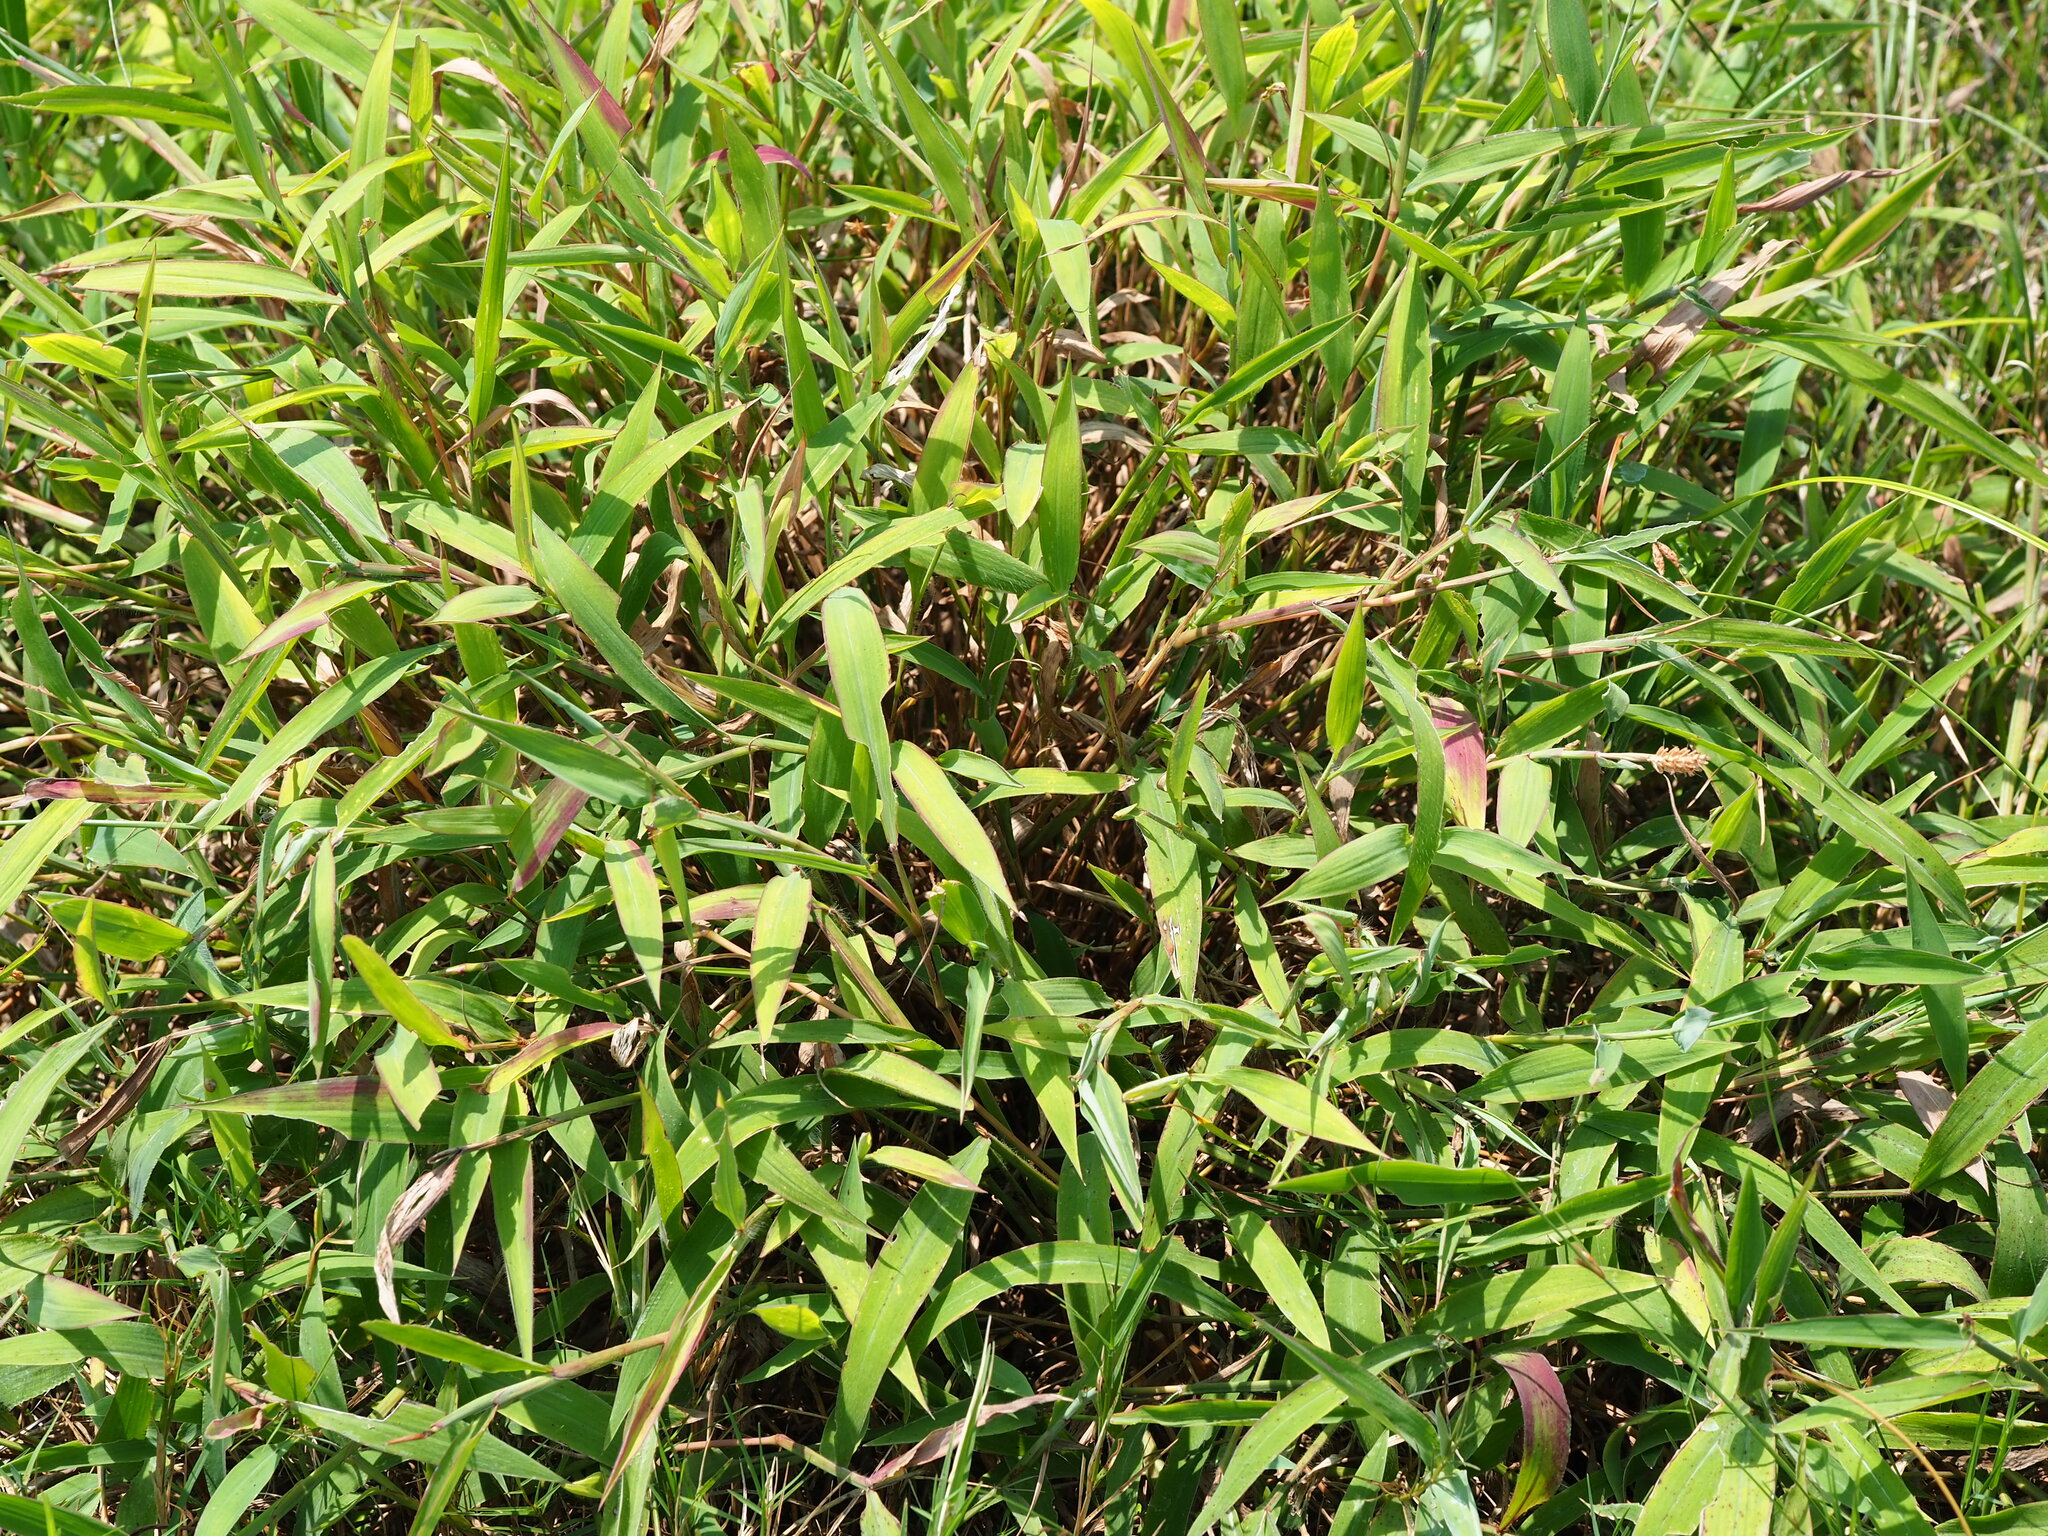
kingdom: Plantae
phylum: Tracheophyta
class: Liliopsida
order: Poales
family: Poaceae
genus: Ischaemum
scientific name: Ischaemum ciliare
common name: Grass
